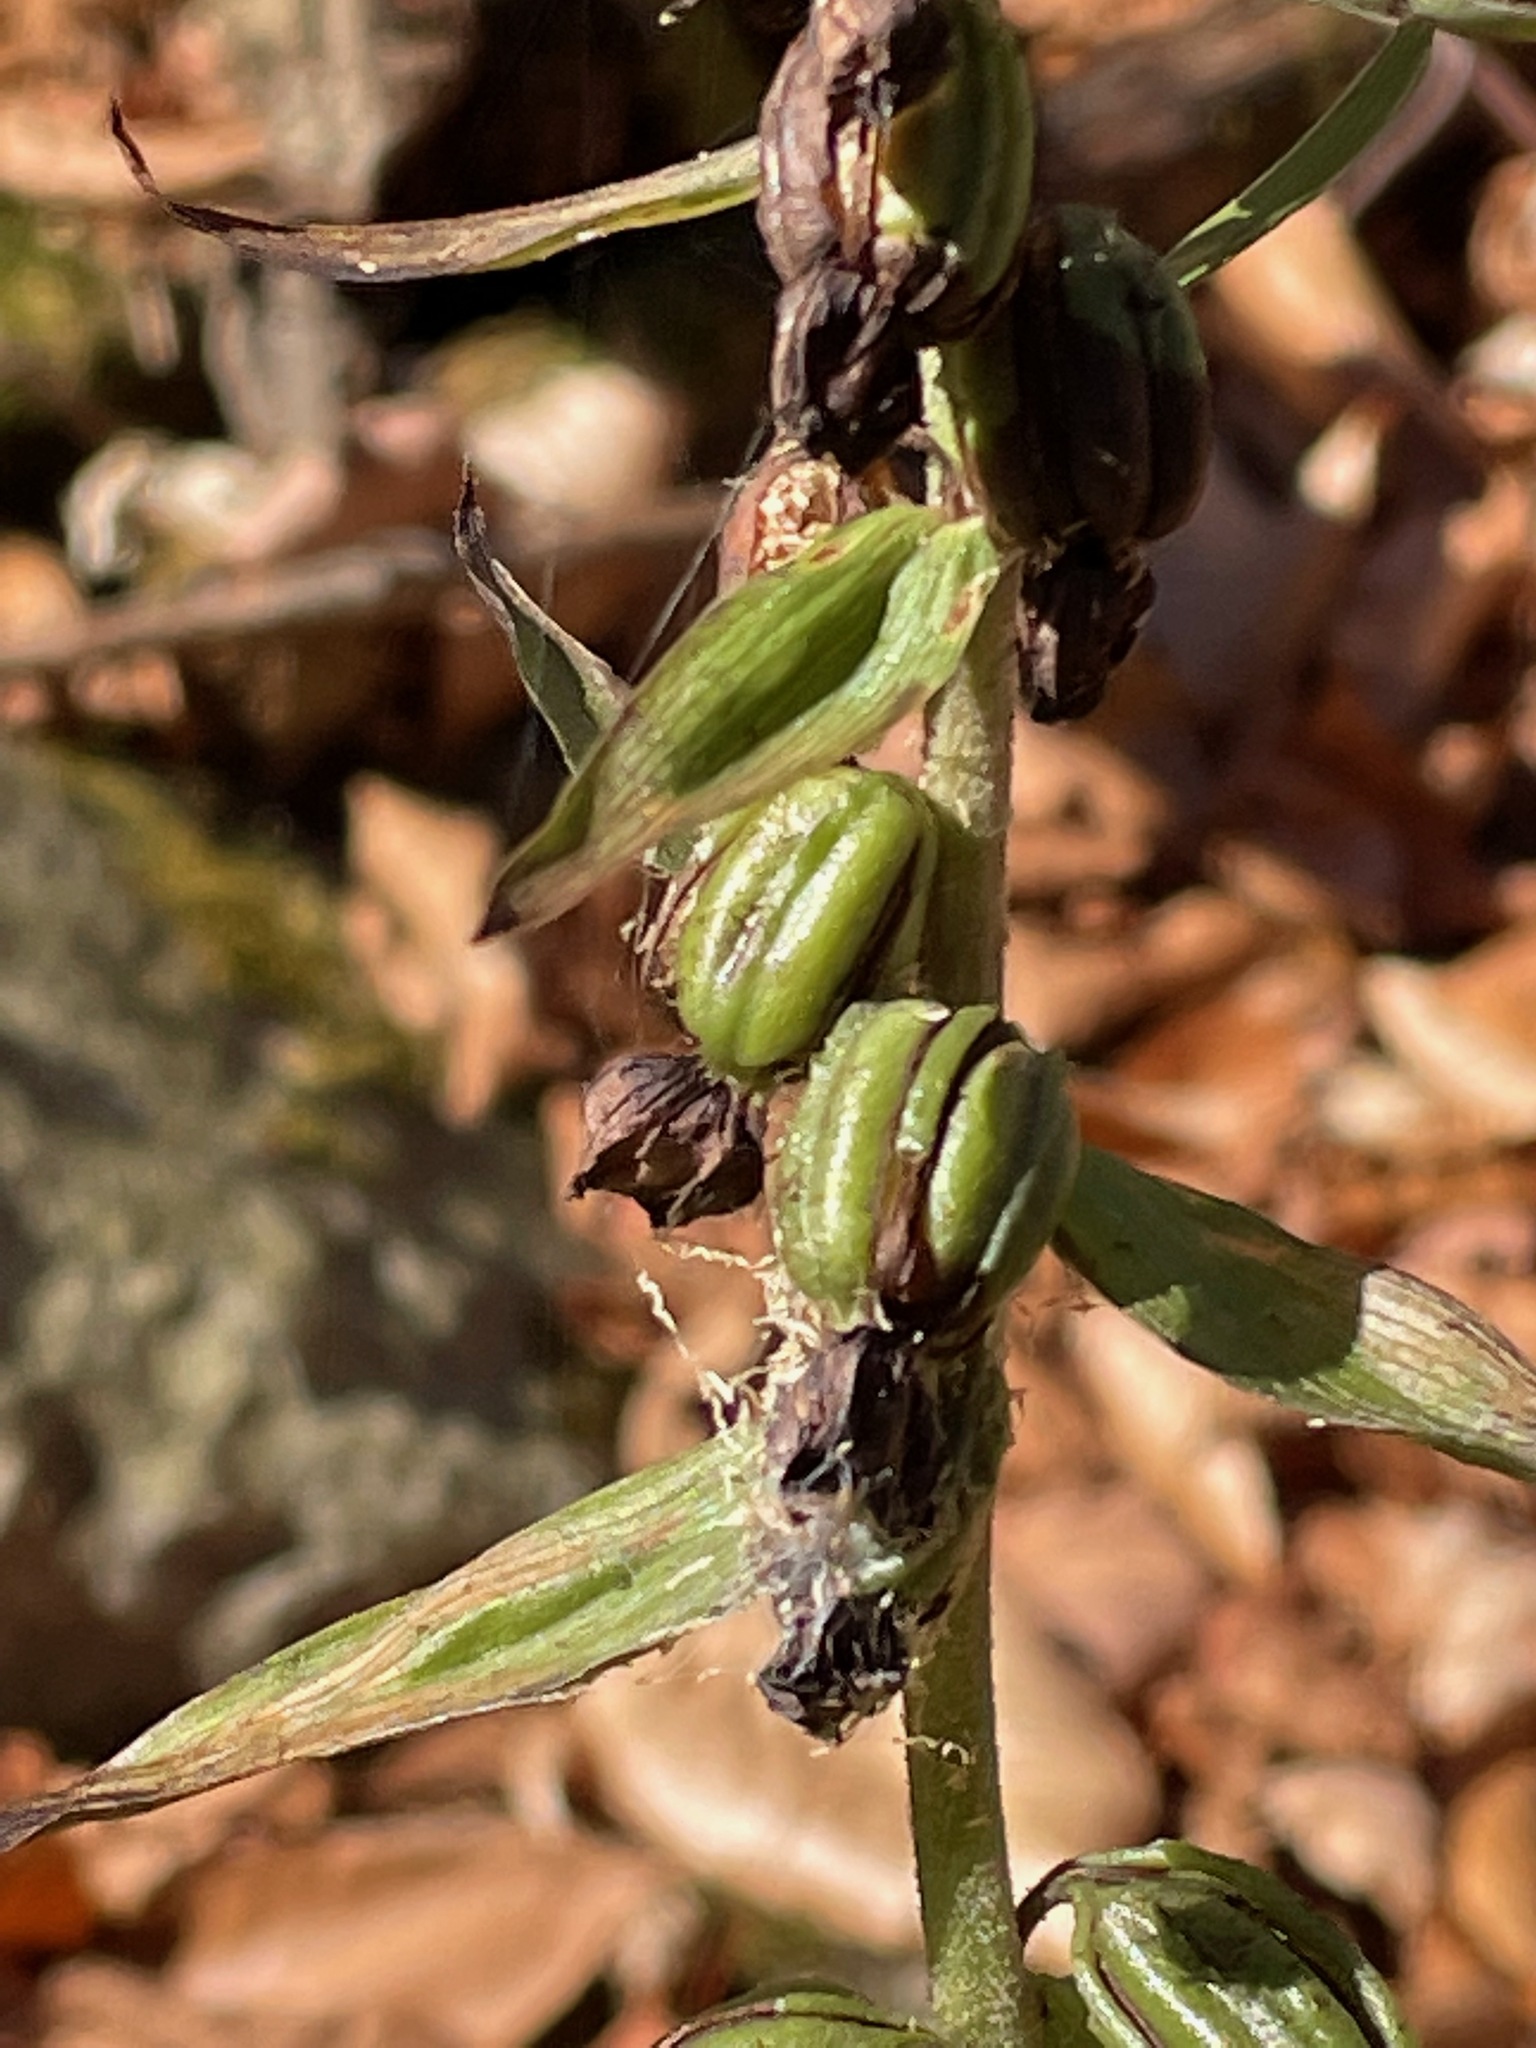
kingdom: Plantae
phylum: Tracheophyta
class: Liliopsida
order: Asparagales
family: Orchidaceae
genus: Epipactis
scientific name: Epipactis helleborine
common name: Broad-leaved helleborine
